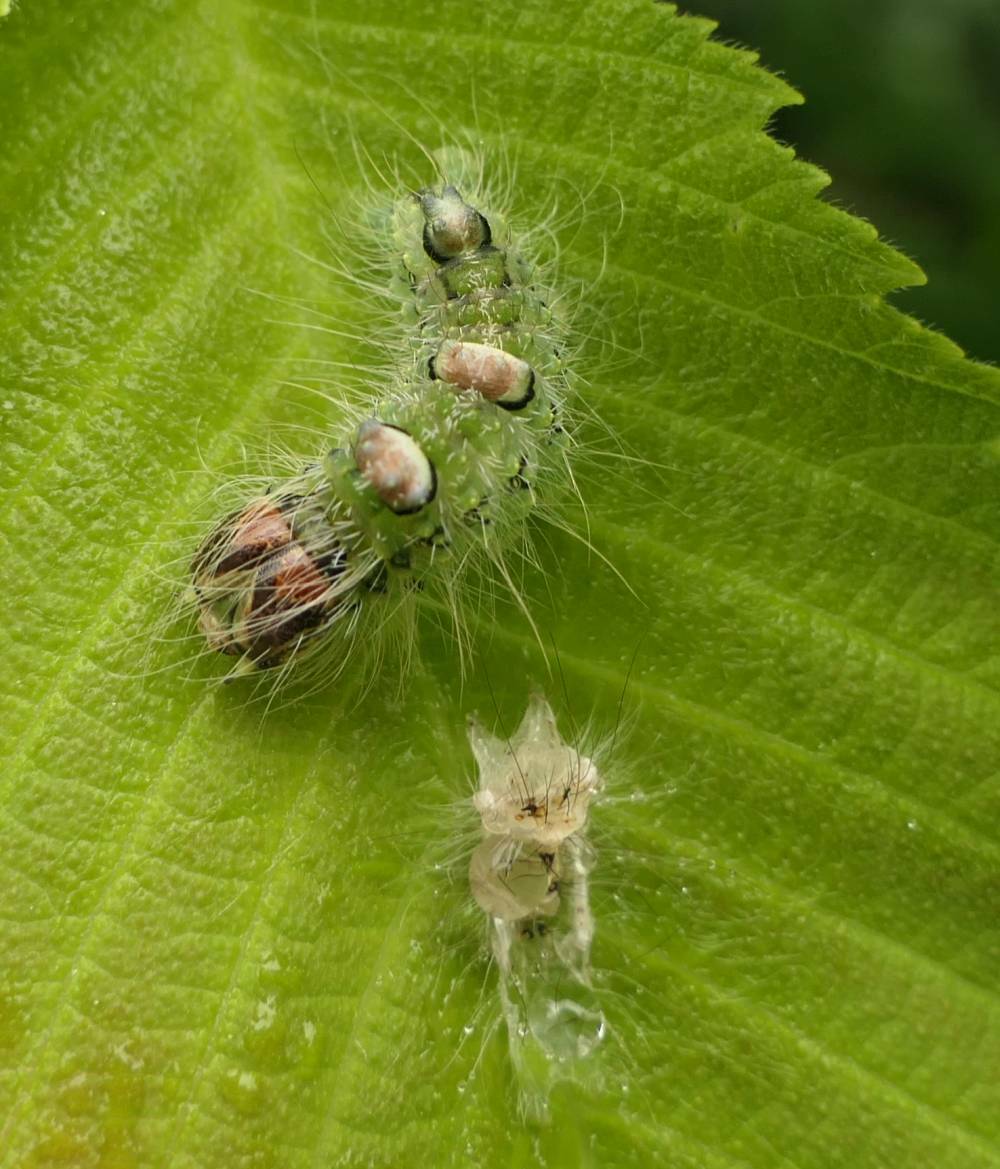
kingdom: Animalia
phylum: Arthropoda
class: Insecta
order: Lepidoptera
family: Noctuidae
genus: Acronicta
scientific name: Acronicta morula
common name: Ochre dagger
